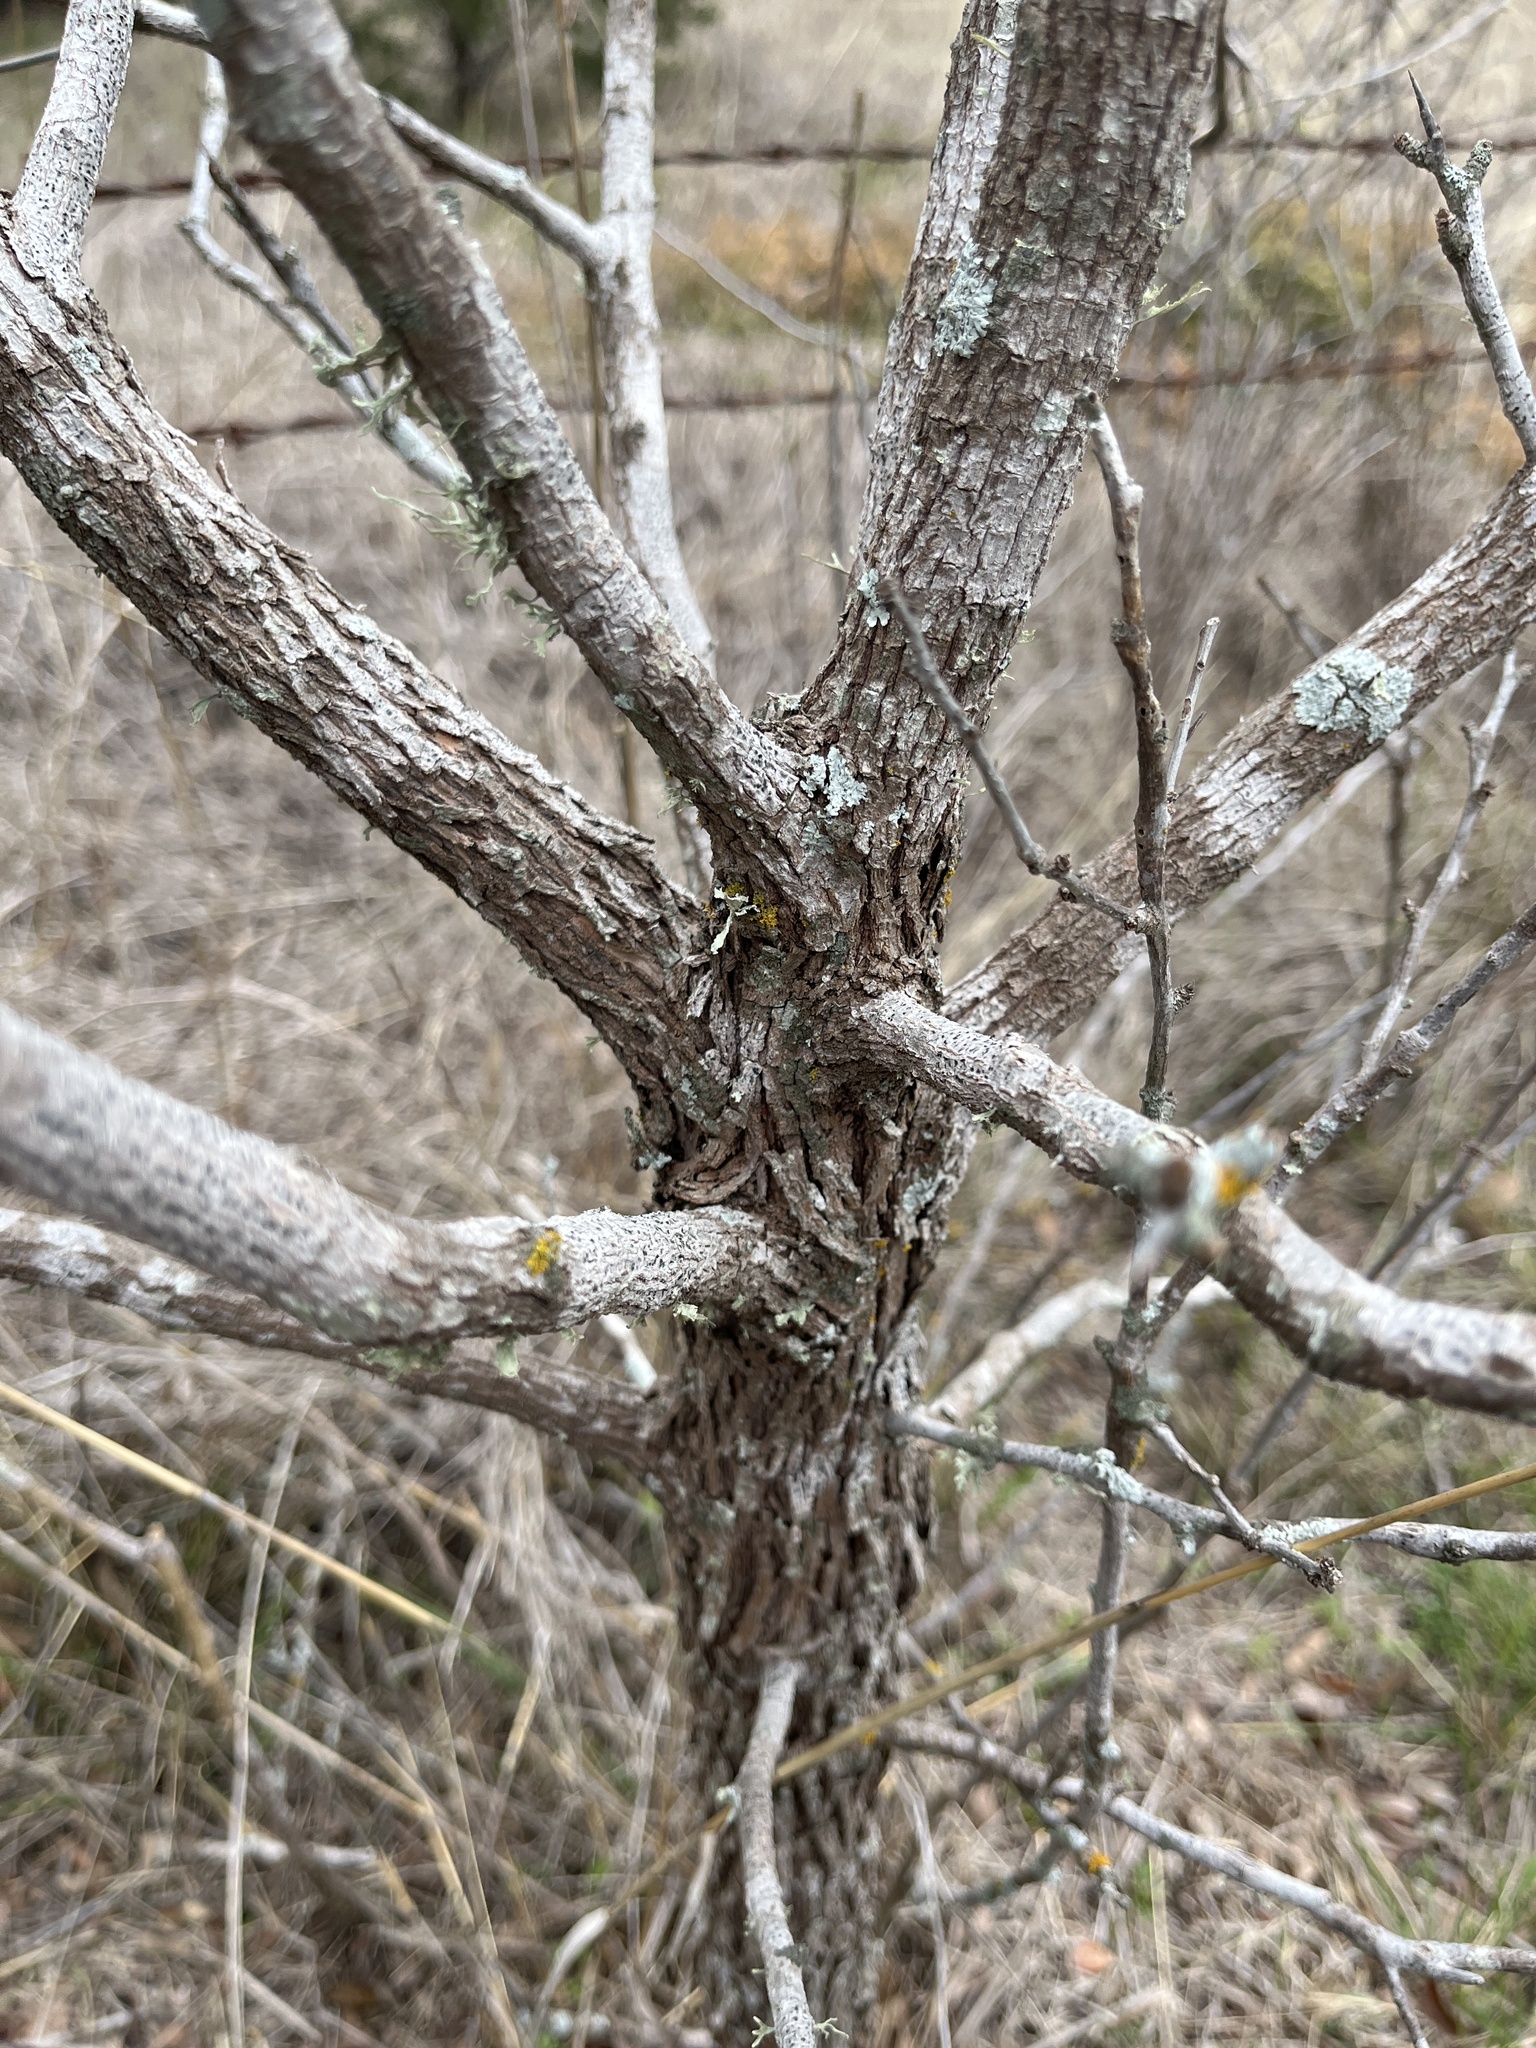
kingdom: Plantae
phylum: Tracheophyta
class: Magnoliopsida
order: Ericales
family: Sapotaceae
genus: Sideroxylon
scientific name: Sideroxylon lanuginosum
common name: Chittamwood
